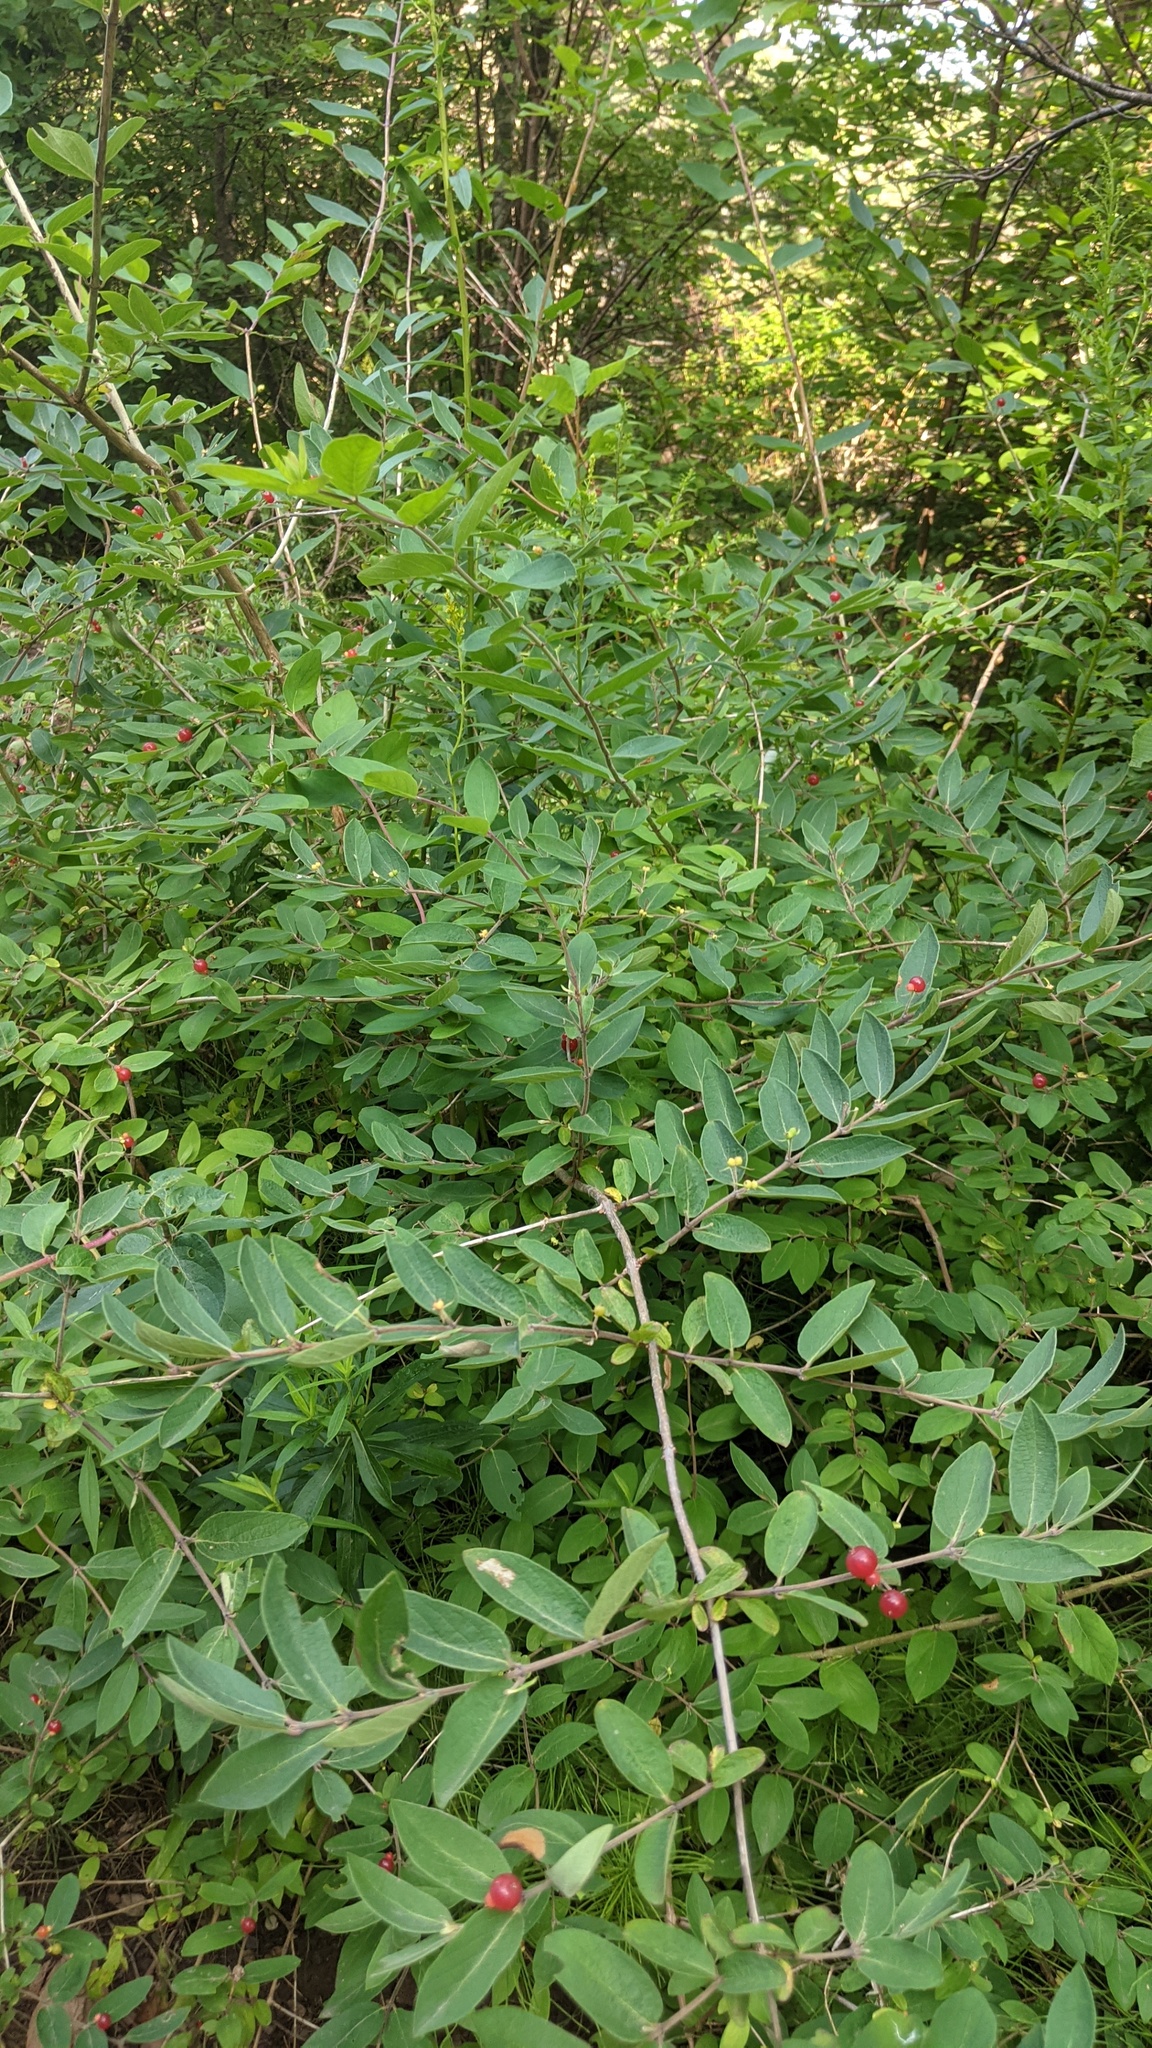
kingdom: Plantae
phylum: Tracheophyta
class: Magnoliopsida
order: Dipsacales
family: Caprifoliaceae
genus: Lonicera
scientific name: Lonicera
